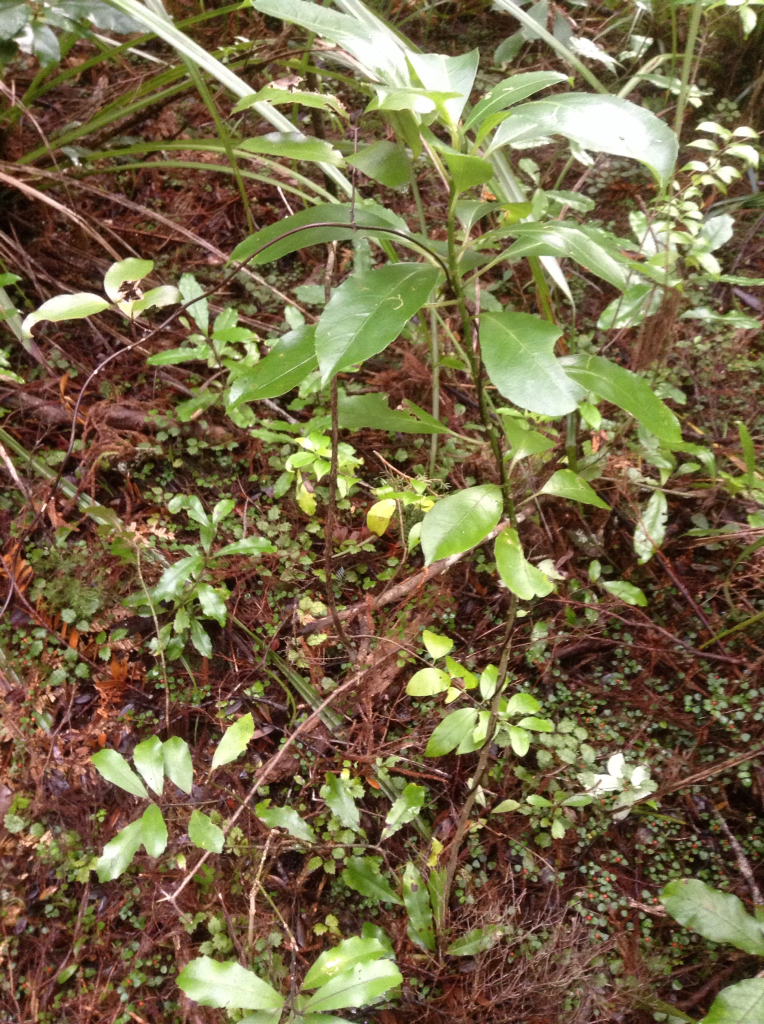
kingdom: Plantae
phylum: Tracheophyta
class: Magnoliopsida
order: Malpighiales
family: Violaceae
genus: Melicytus
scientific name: Melicytus macrophyllus
